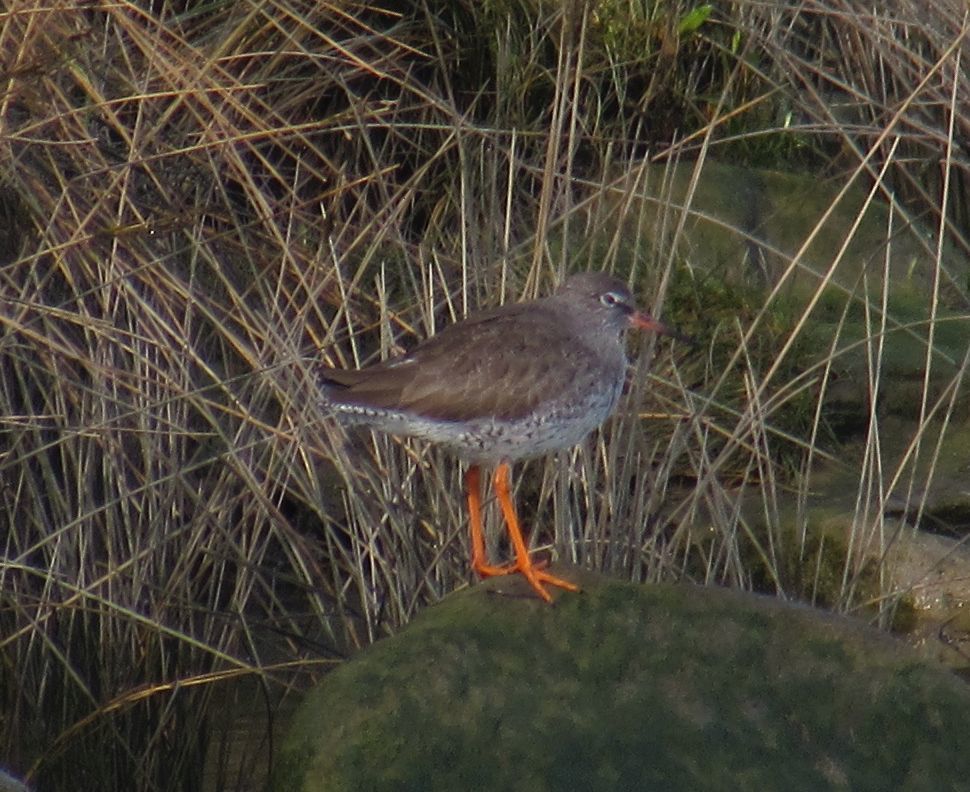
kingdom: Animalia
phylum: Chordata
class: Aves
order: Charadriiformes
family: Scolopacidae
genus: Tringa
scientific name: Tringa totanus
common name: Common redshank
